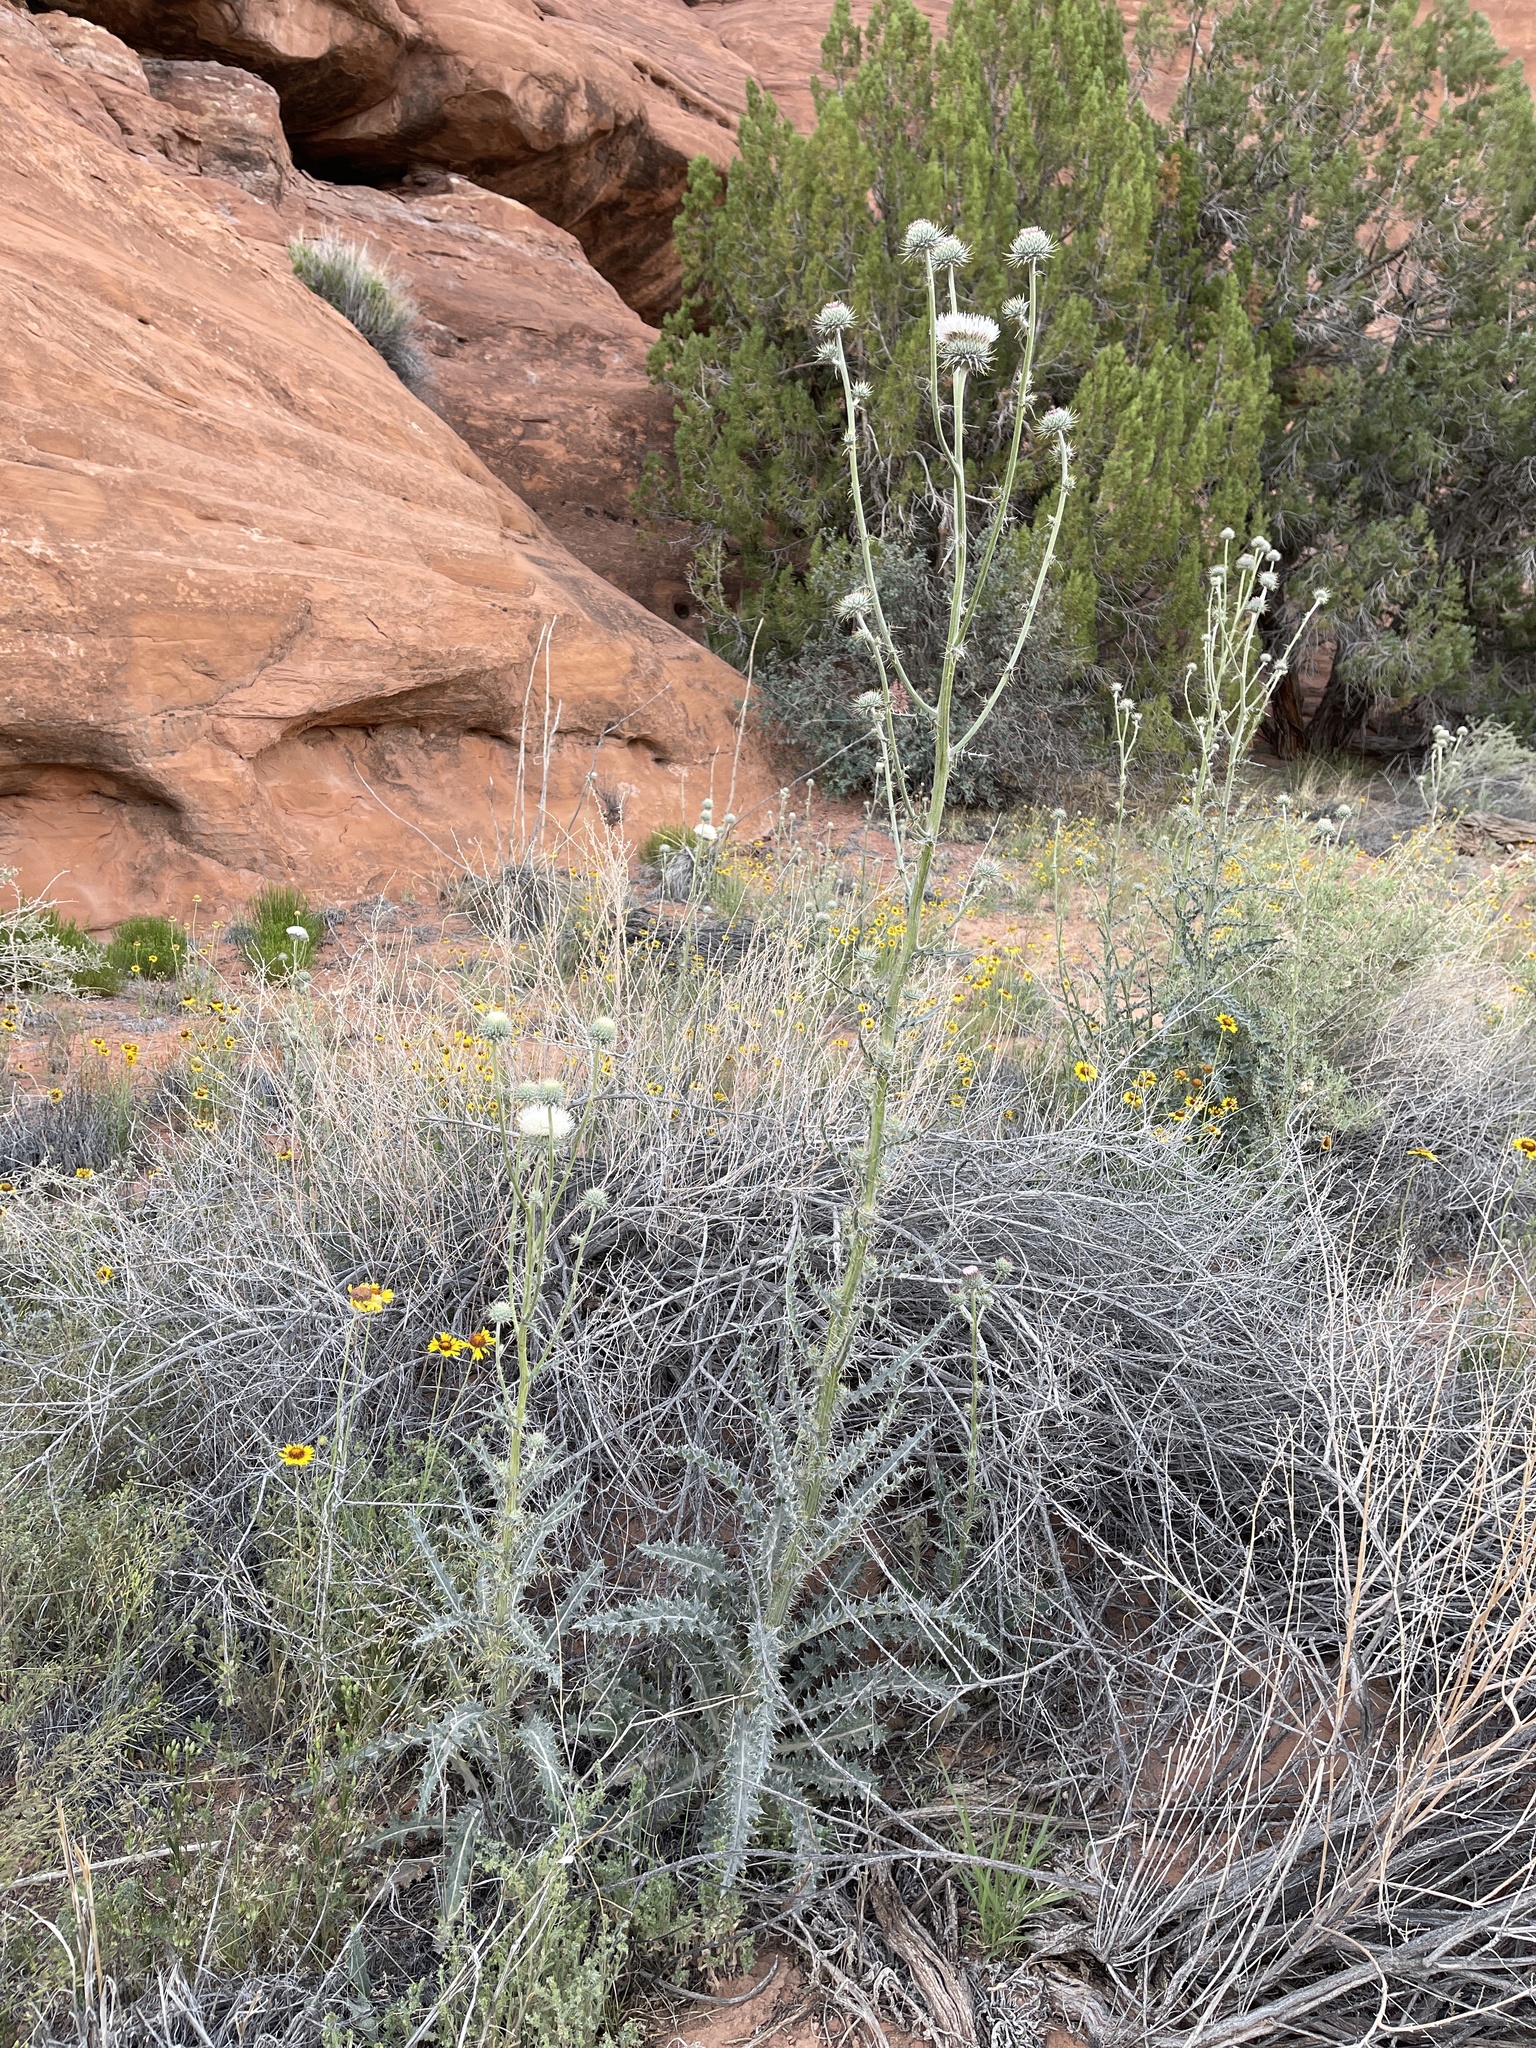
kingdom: Plantae
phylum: Tracheophyta
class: Magnoliopsida
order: Asterales
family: Asteraceae
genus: Cirsium
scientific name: Cirsium neomexicanum
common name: New mexico thistle
